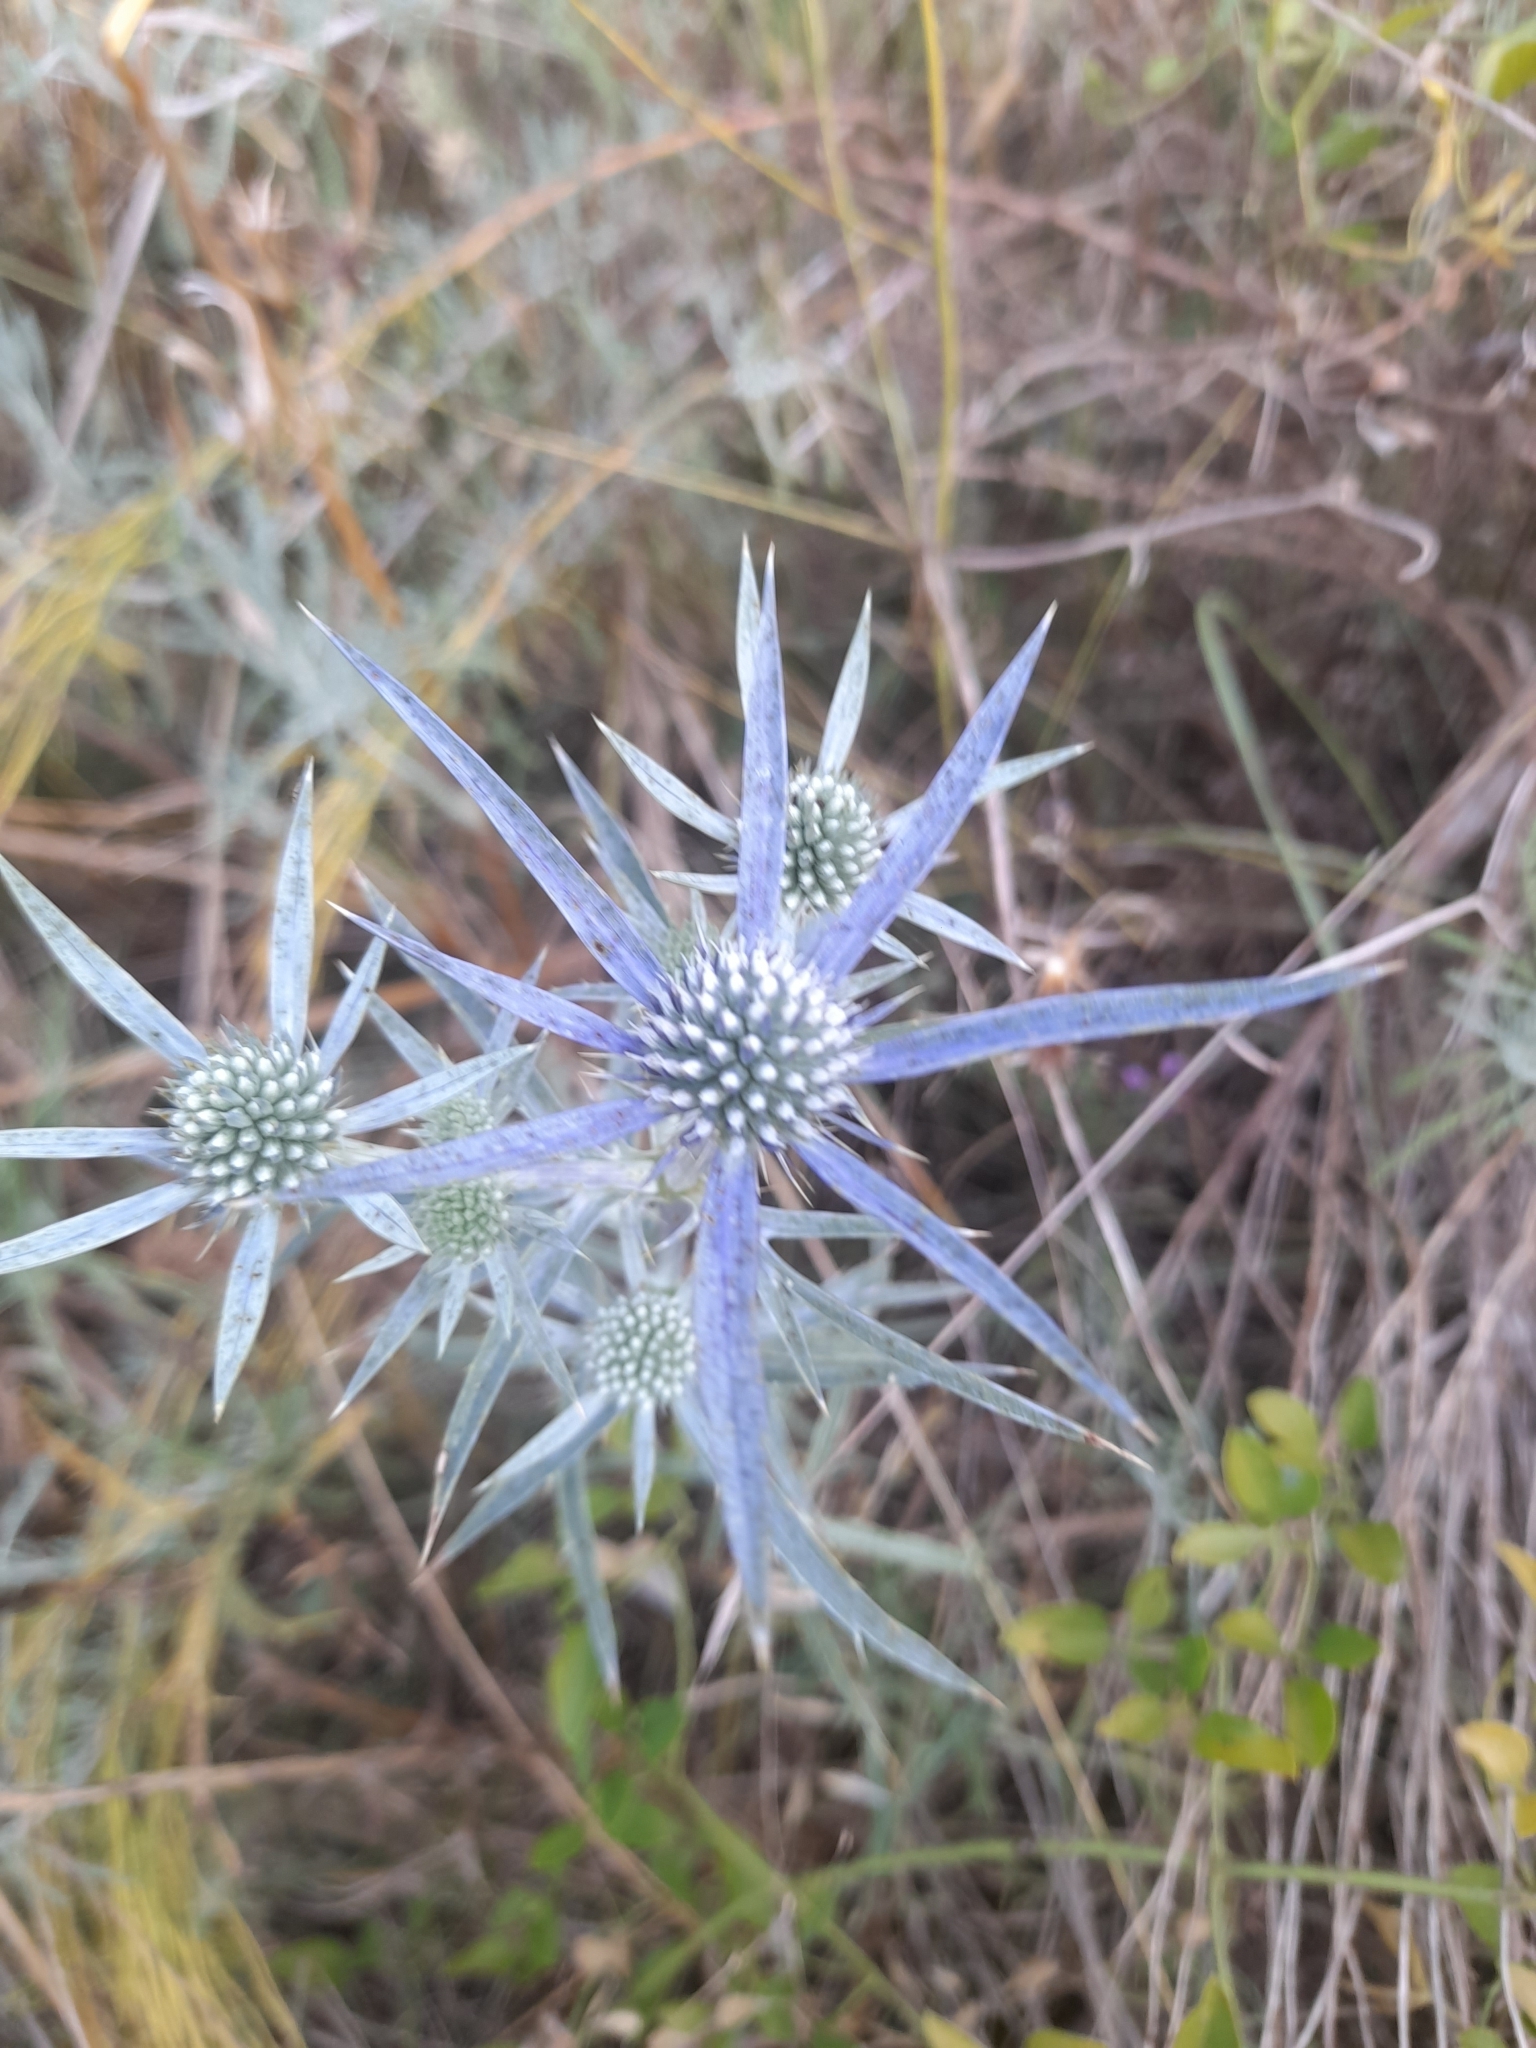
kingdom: Plantae
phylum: Tracheophyta
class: Magnoliopsida
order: Apiales
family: Apiaceae
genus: Eryngium
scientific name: Eryngium amethystinum
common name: Amethyst eryngo
